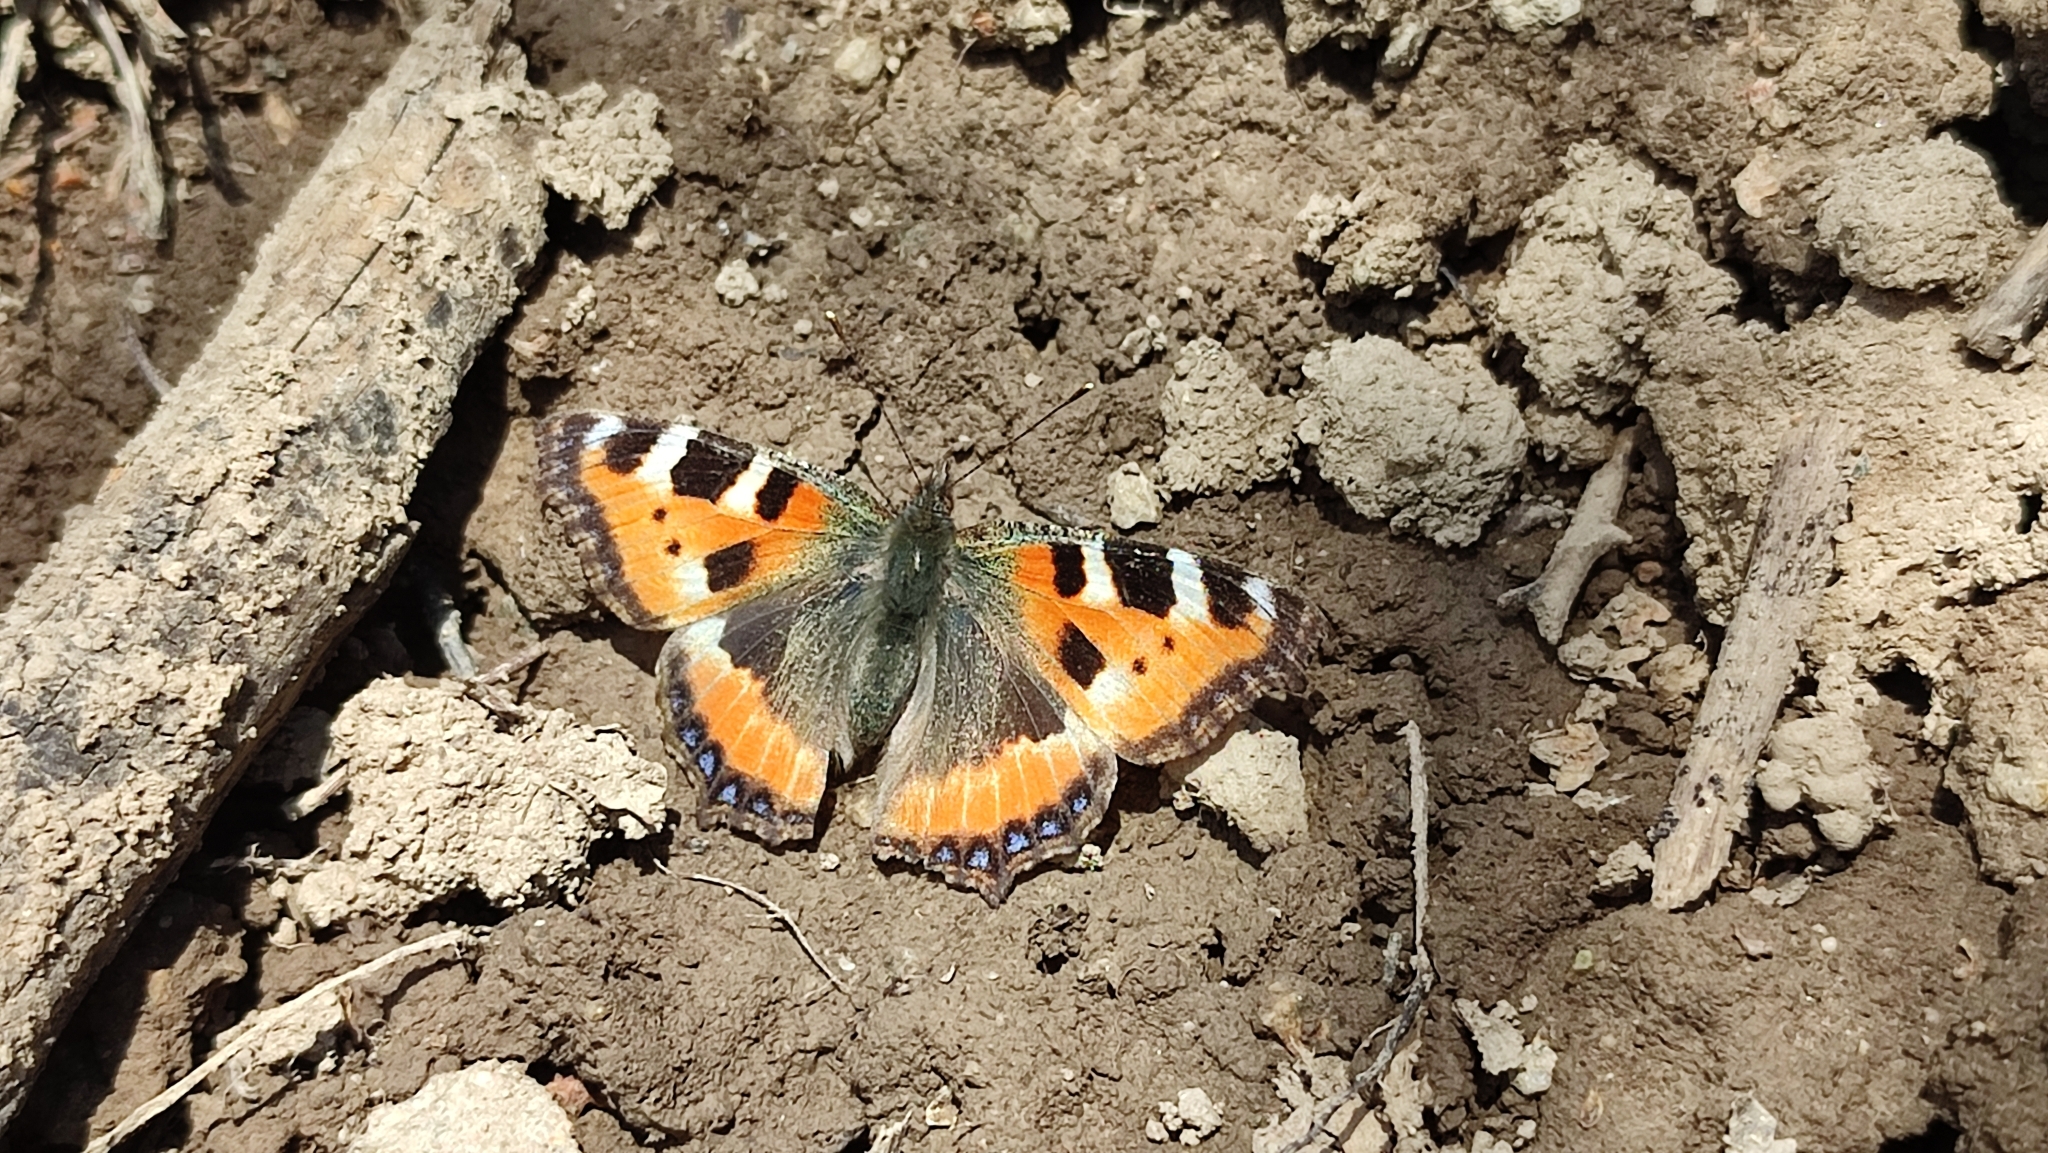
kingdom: Animalia
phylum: Arthropoda
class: Insecta
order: Lepidoptera
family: Nymphalidae
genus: Aglais
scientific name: Aglais urticae
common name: Small tortoiseshell
